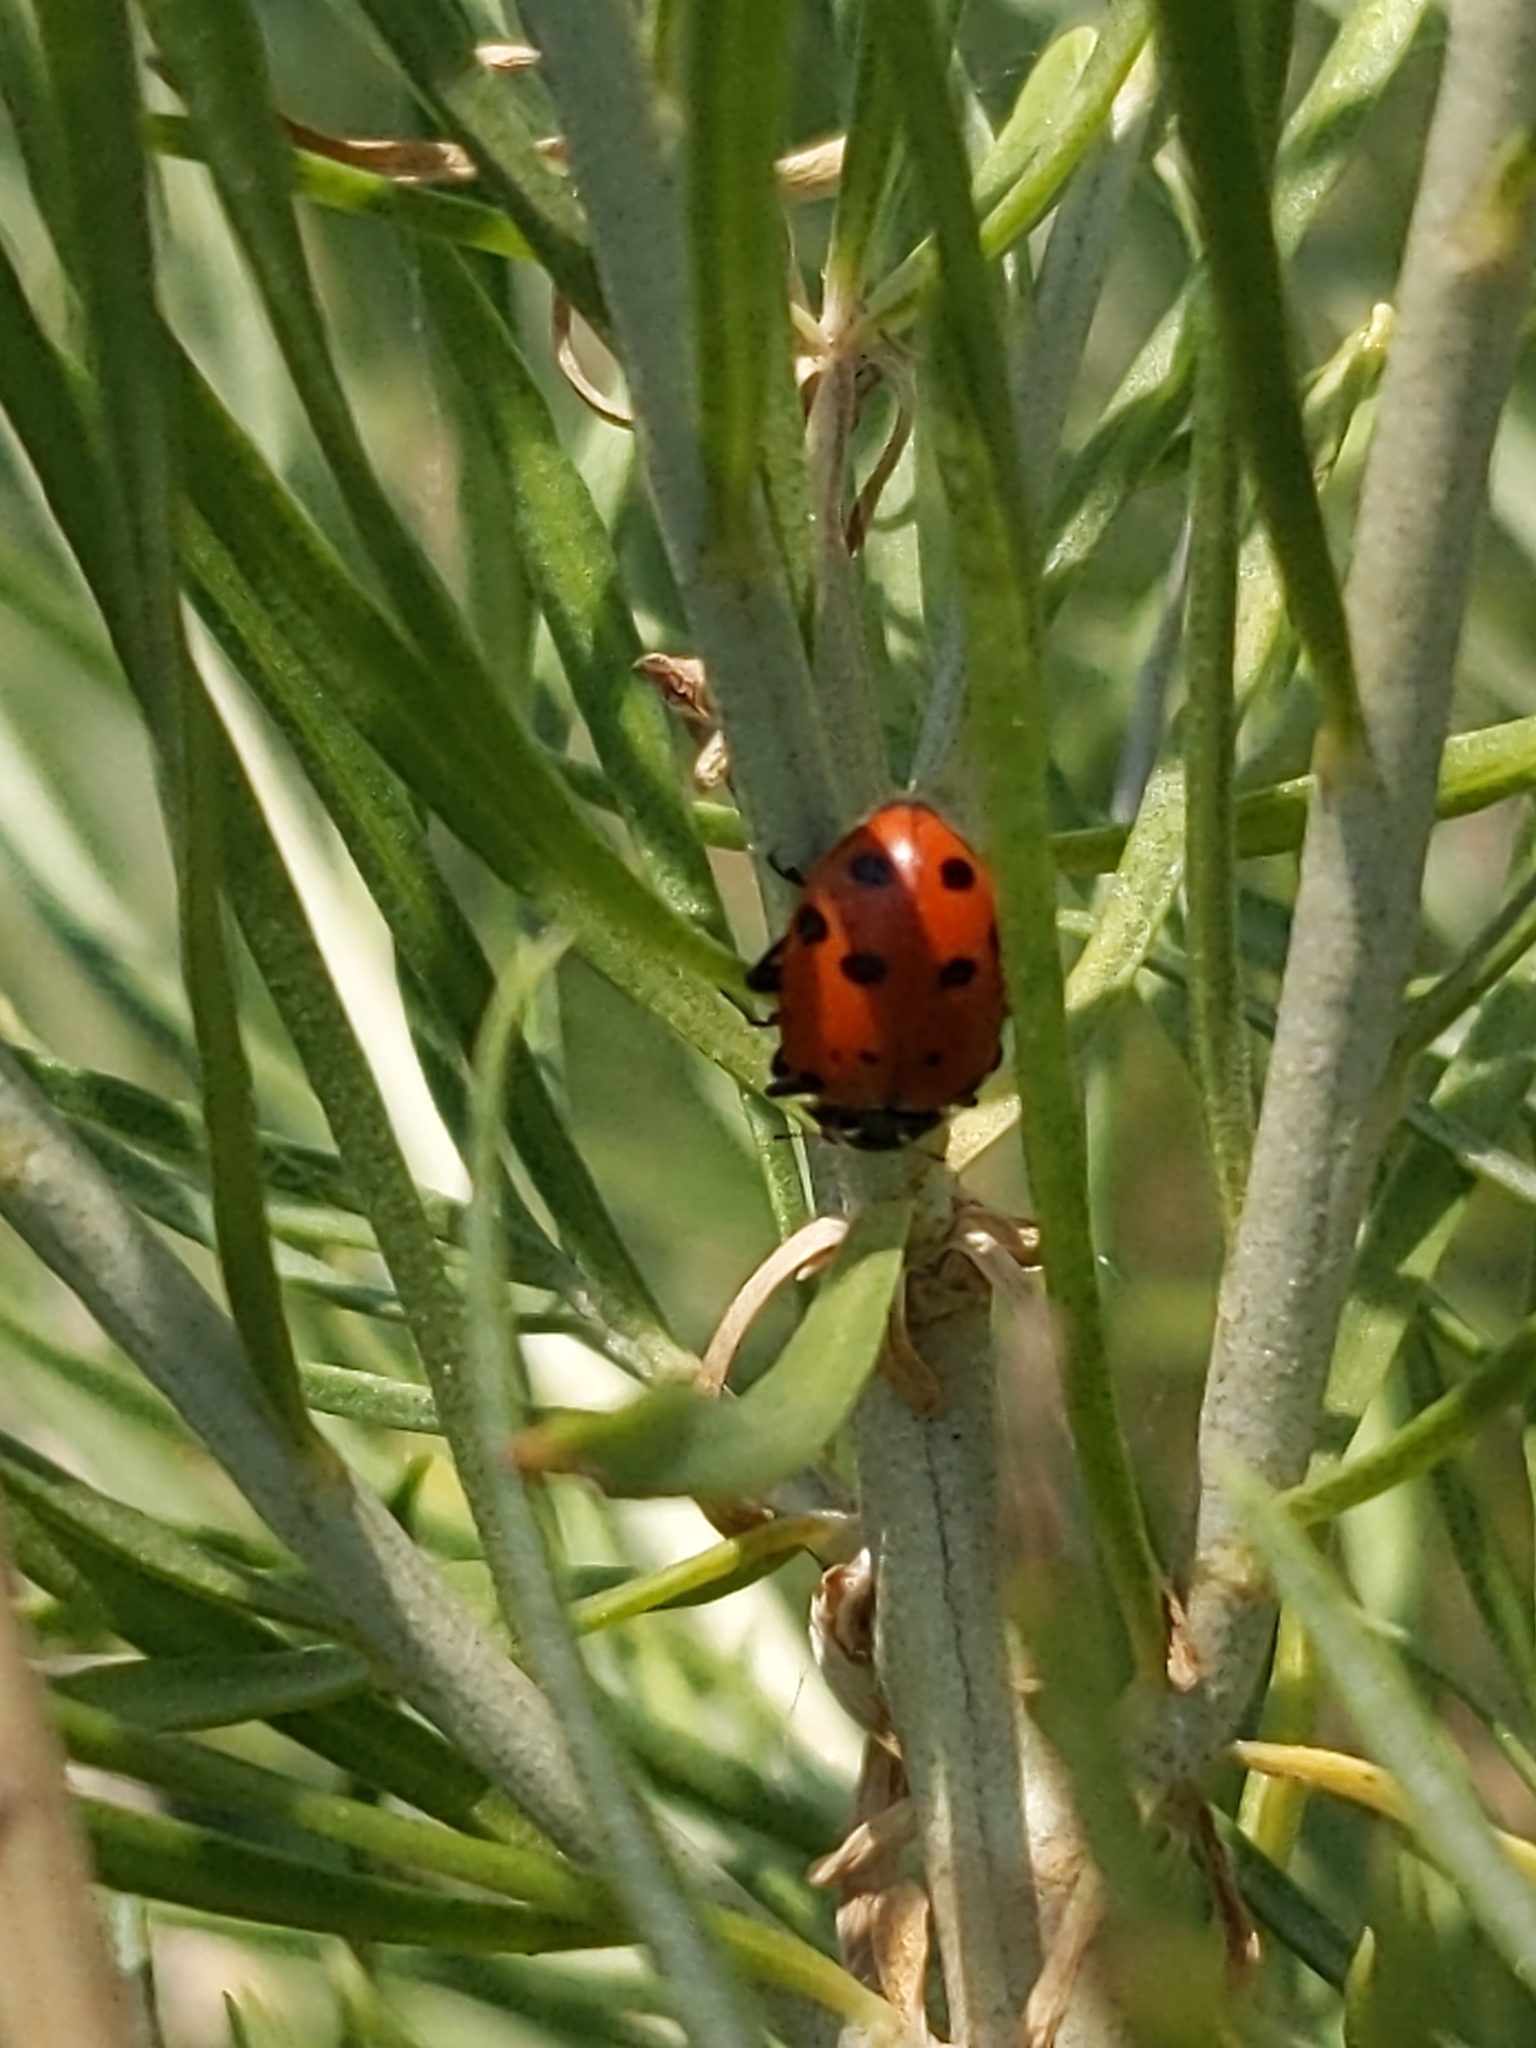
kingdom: Animalia
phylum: Arthropoda
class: Insecta
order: Coleoptera
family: Coccinellidae
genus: Hippodamia
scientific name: Hippodamia convergens
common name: Convergent lady beetle
